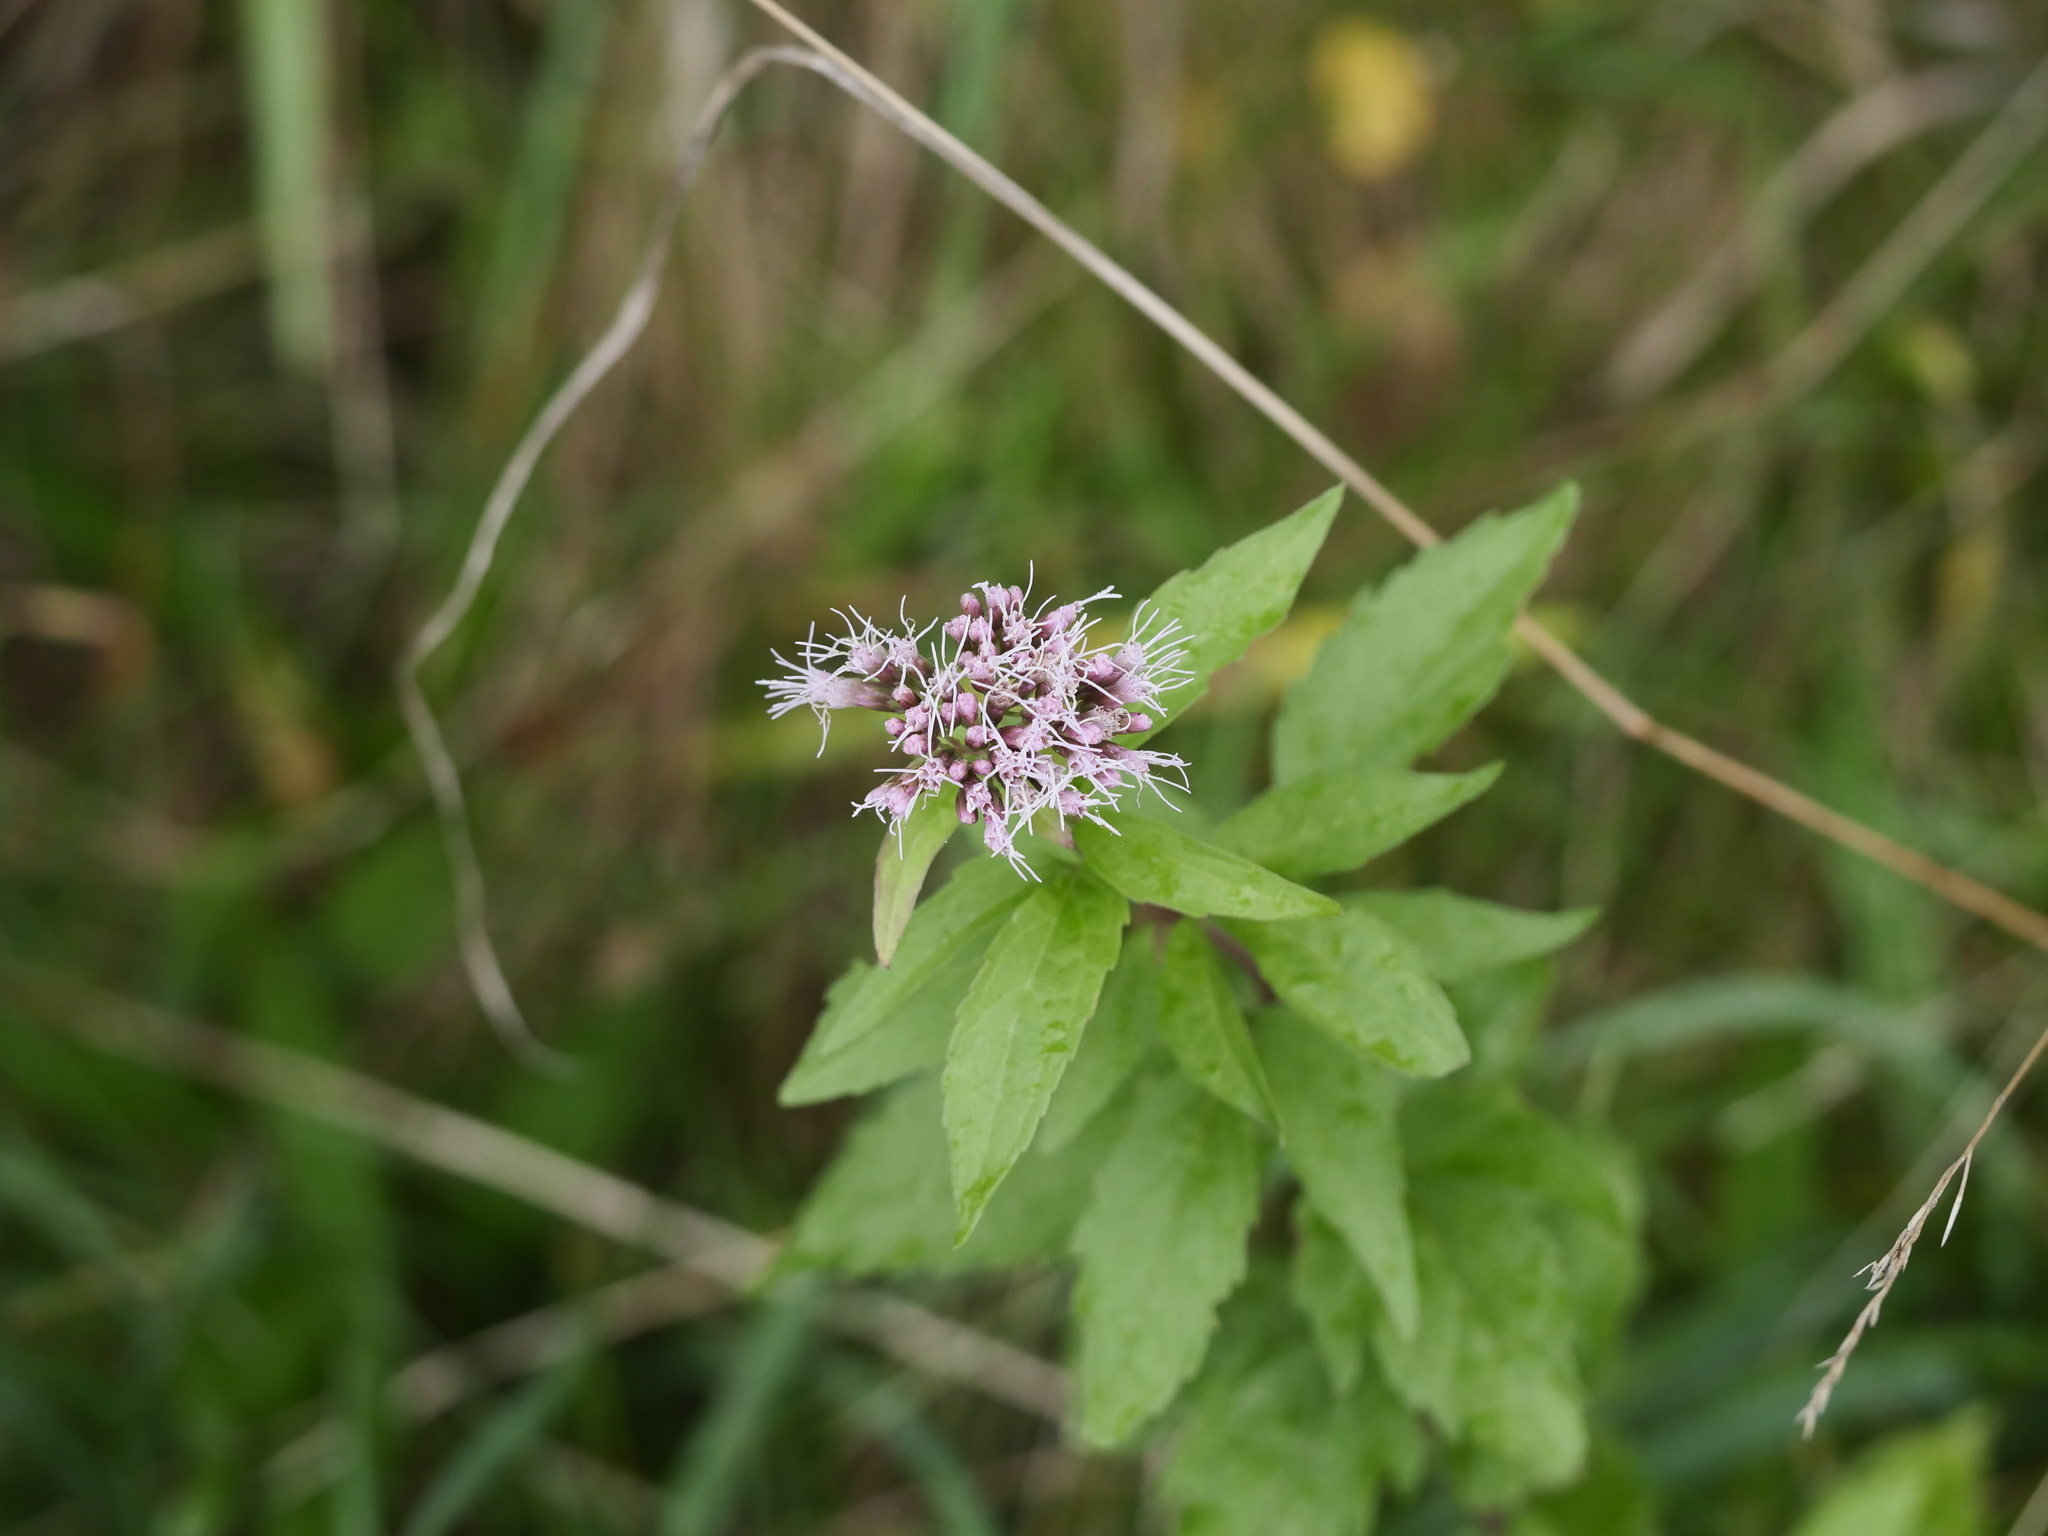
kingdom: Plantae
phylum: Tracheophyta
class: Magnoliopsida
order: Asterales
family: Asteraceae
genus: Eupatorium
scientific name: Eupatorium cannabinum
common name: Hemp-agrimony
